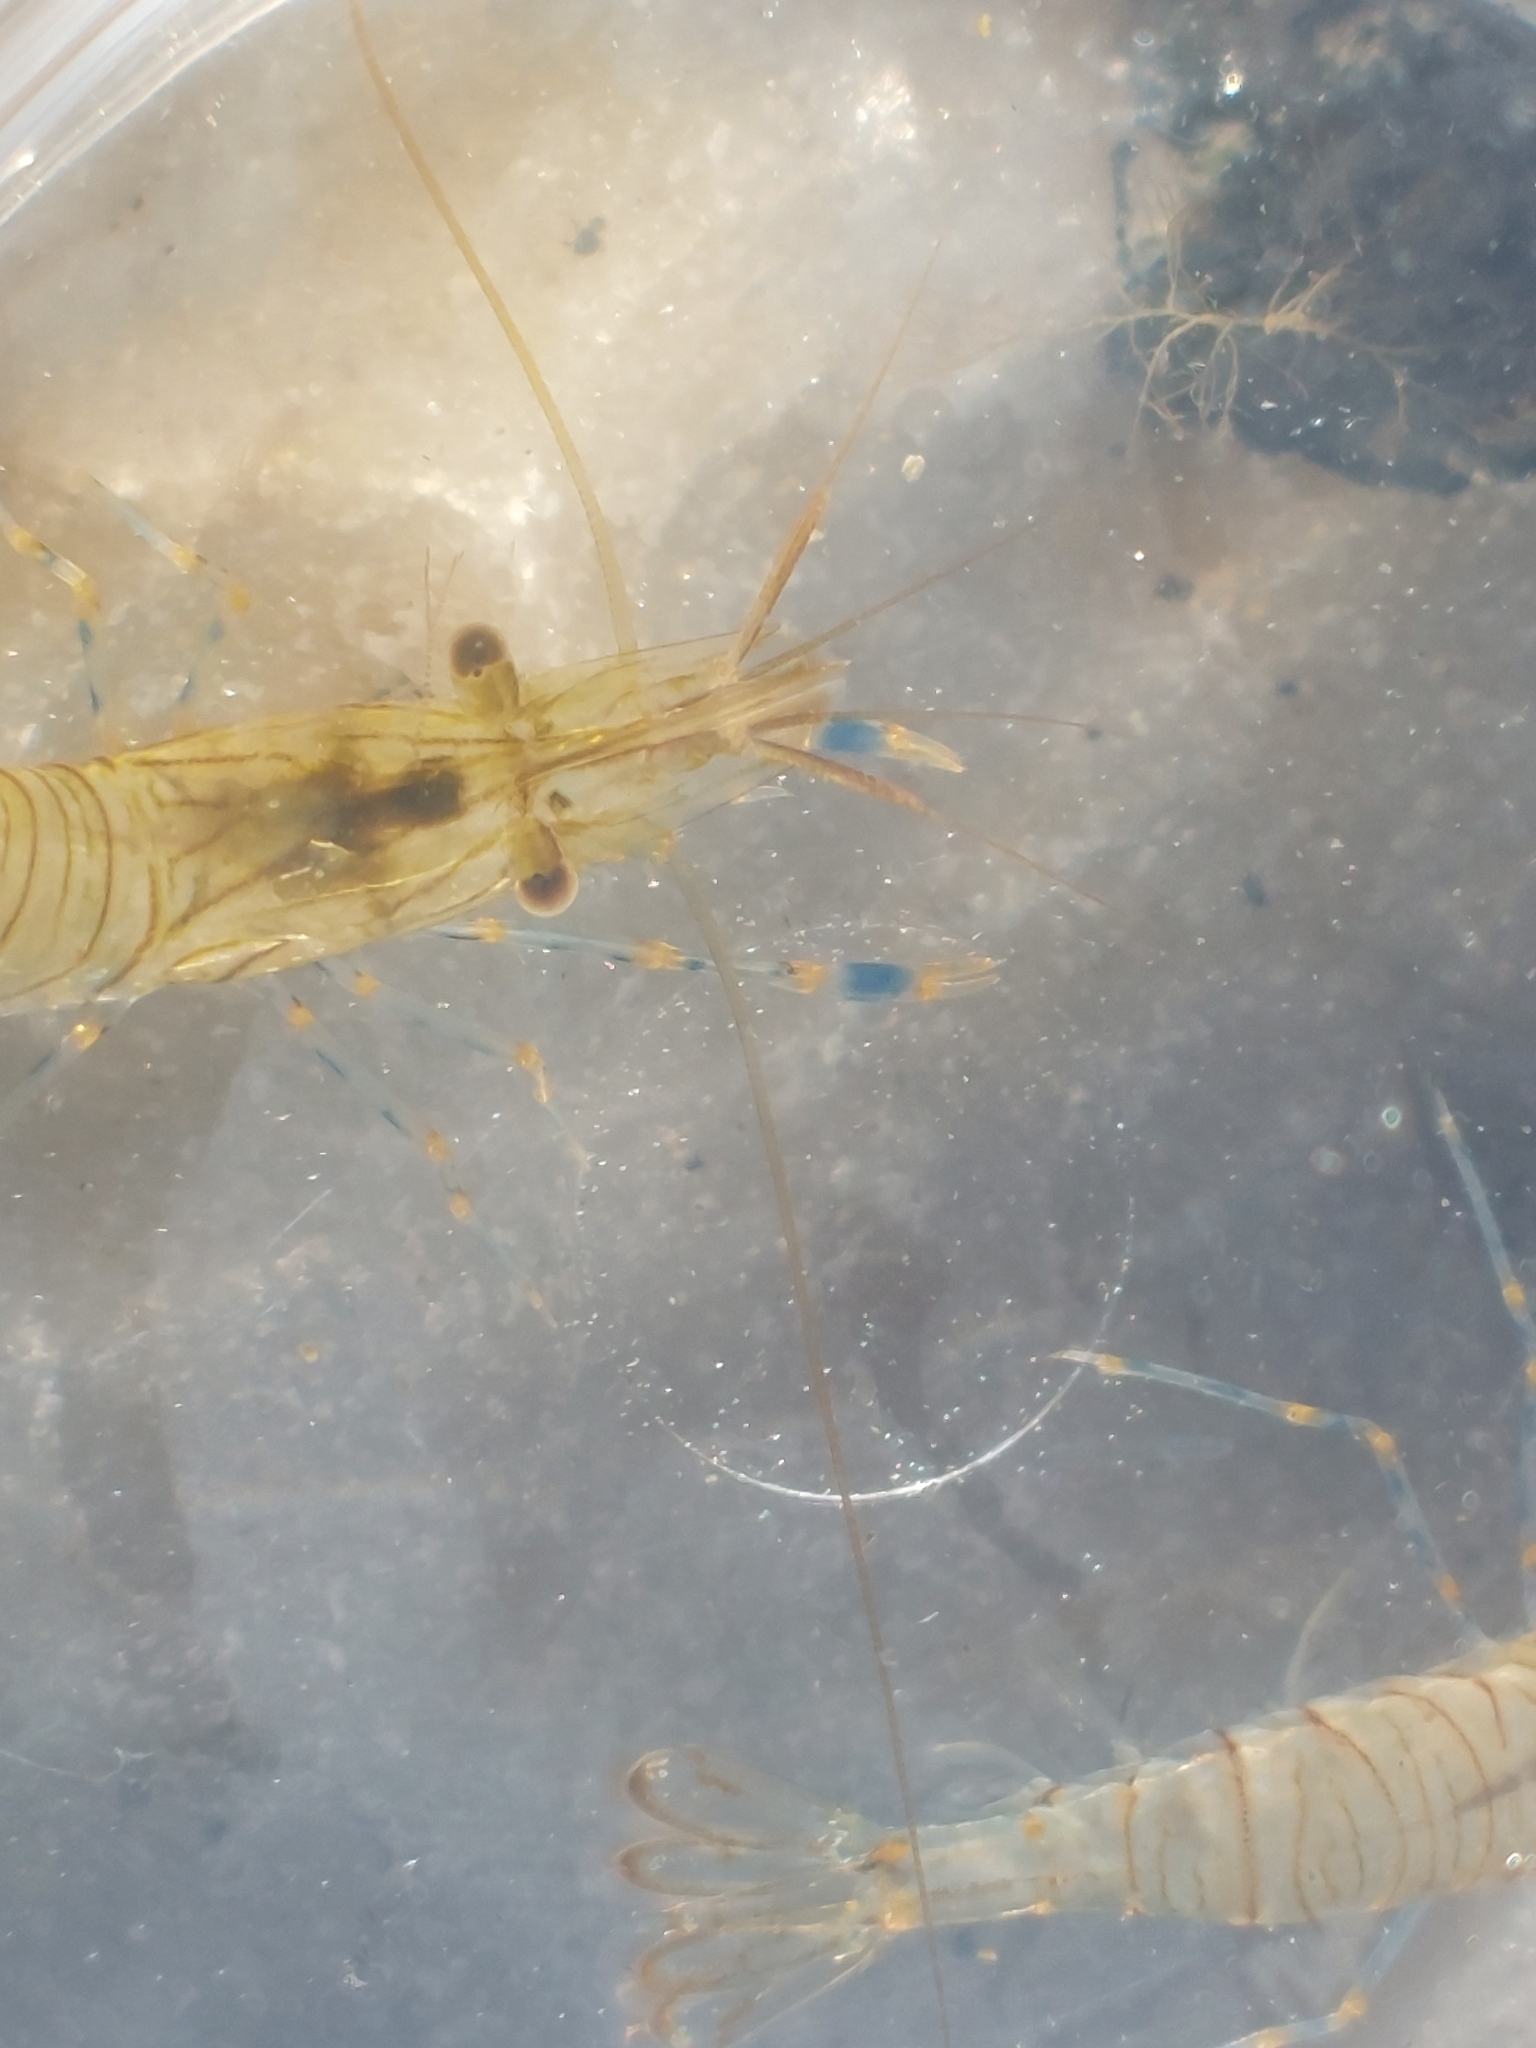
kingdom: Animalia
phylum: Arthropoda
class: Malacostraca
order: Decapoda
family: Palaemonidae
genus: Palaemon
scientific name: Palaemon elegans
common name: Grass prawm
